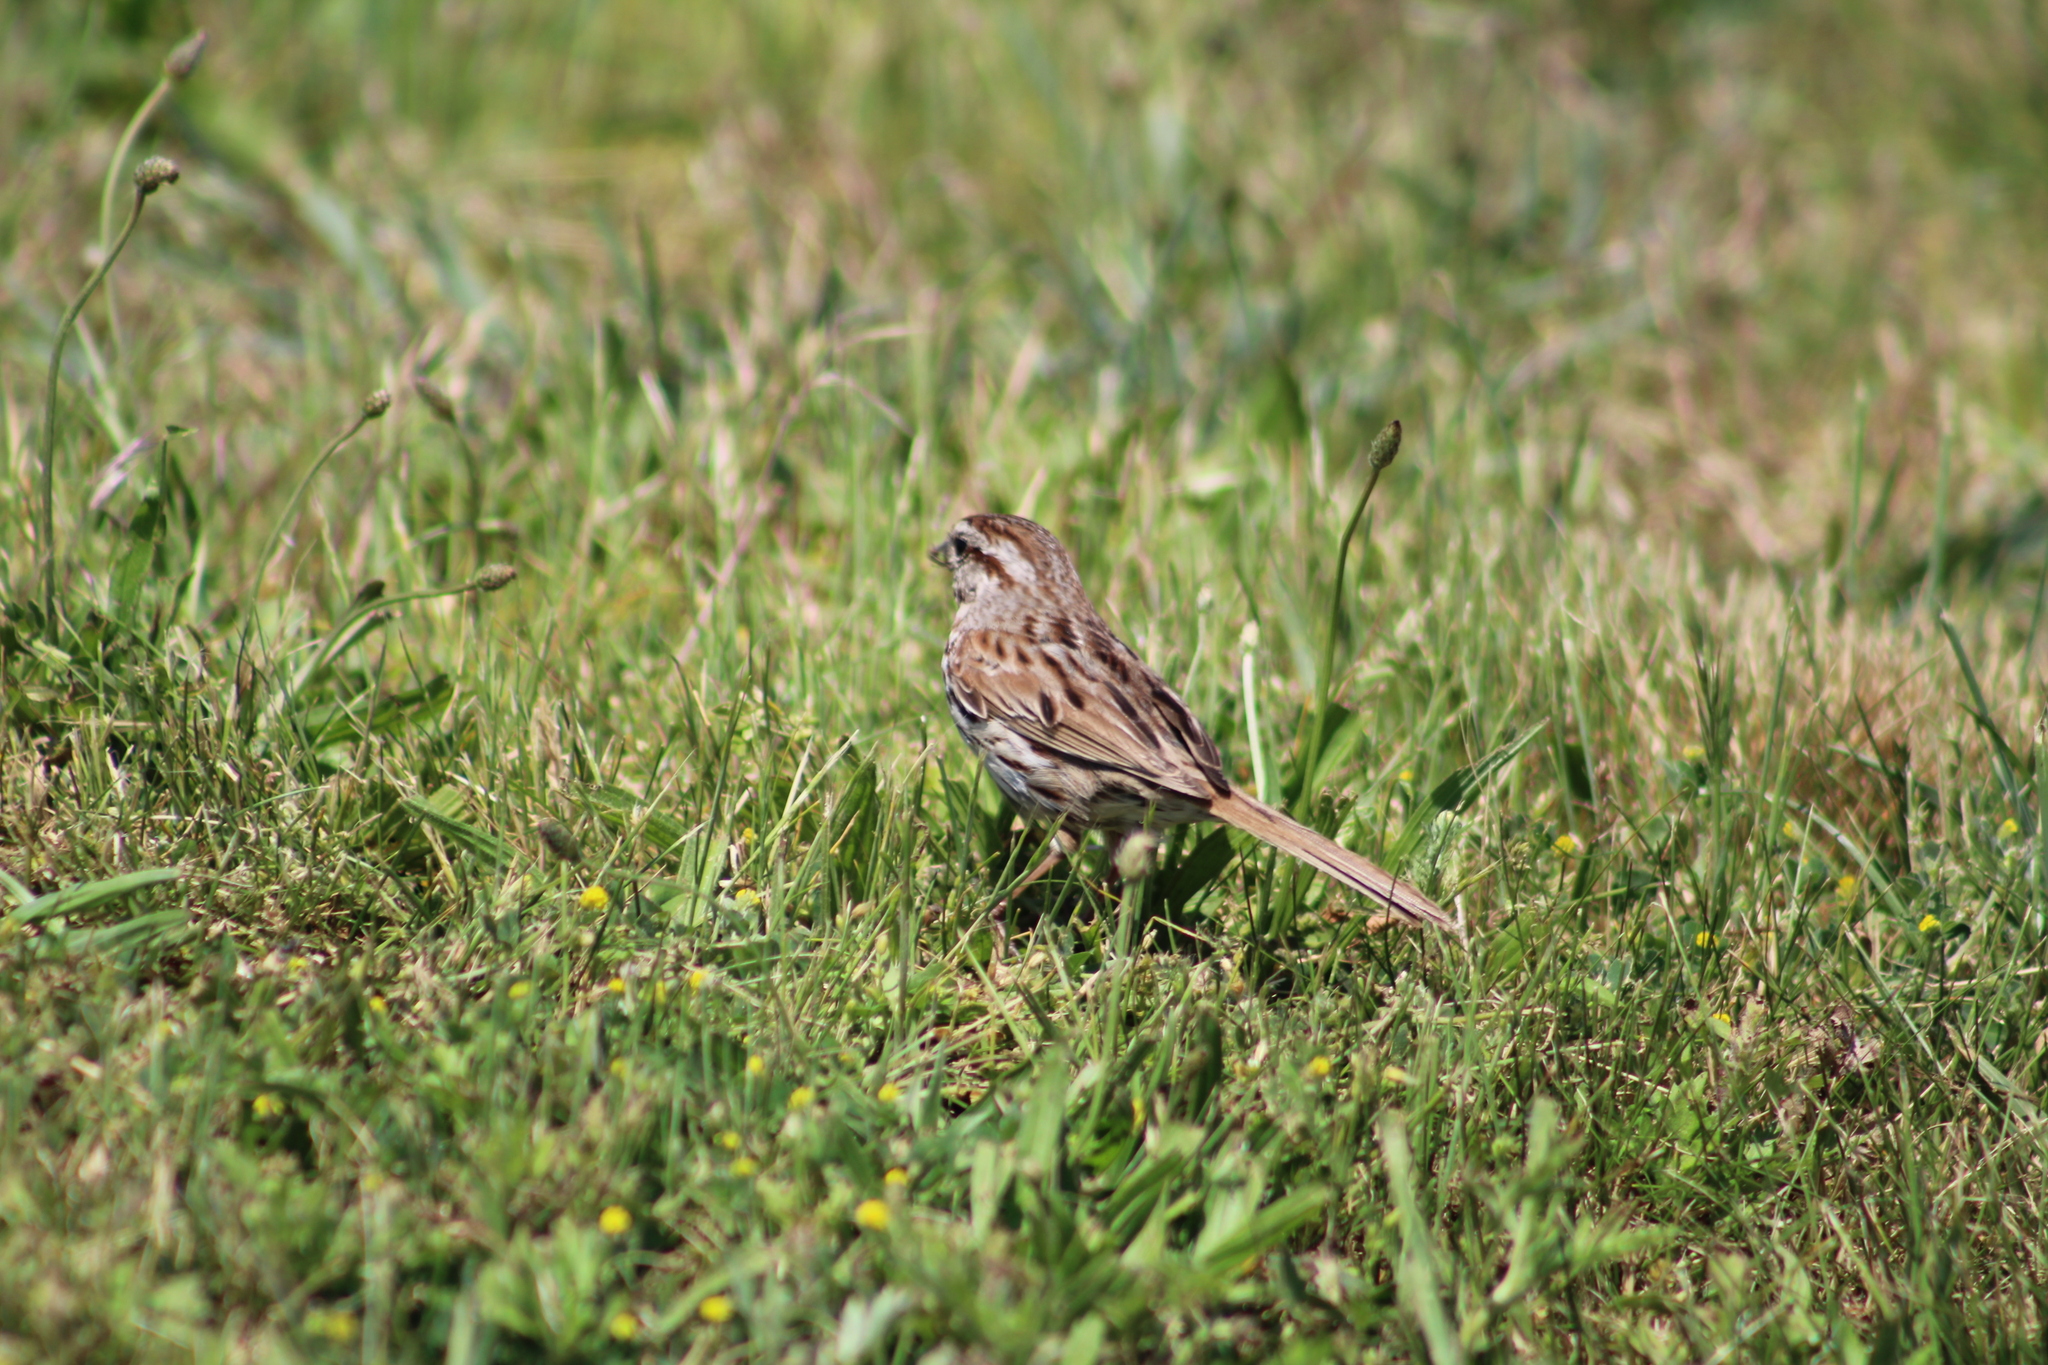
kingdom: Animalia
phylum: Chordata
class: Aves
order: Passeriformes
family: Passerellidae
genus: Melospiza
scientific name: Melospiza melodia
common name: Song sparrow
